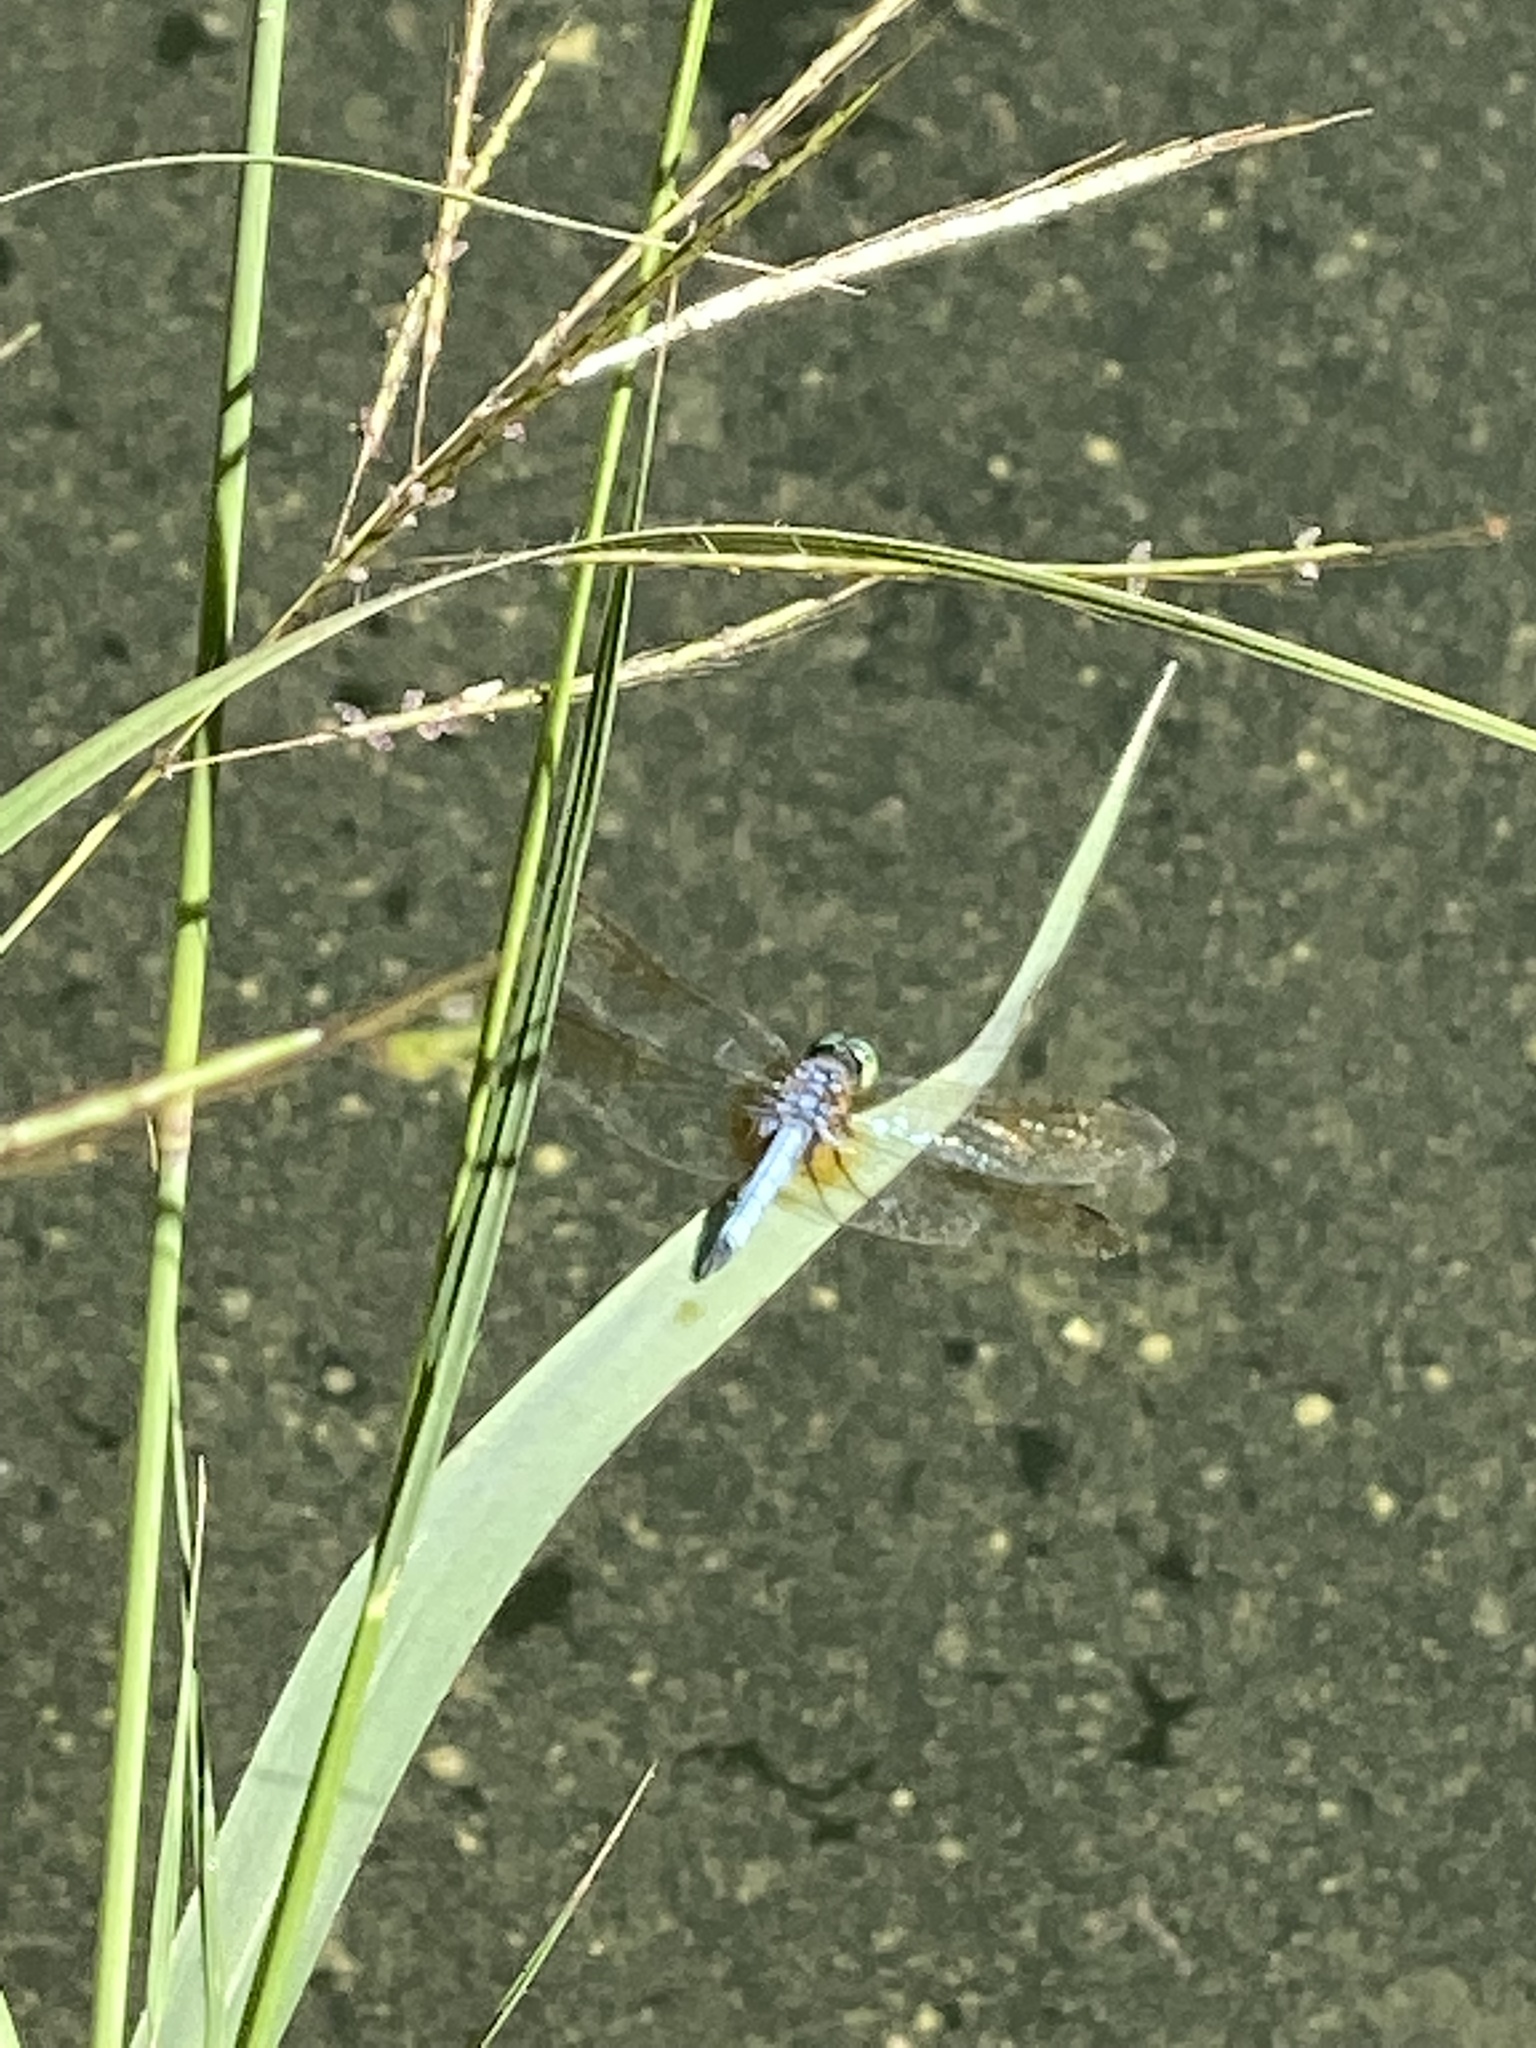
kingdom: Animalia
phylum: Arthropoda
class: Insecta
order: Odonata
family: Libellulidae
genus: Pachydiplax
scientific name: Pachydiplax longipennis
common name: Blue dasher
